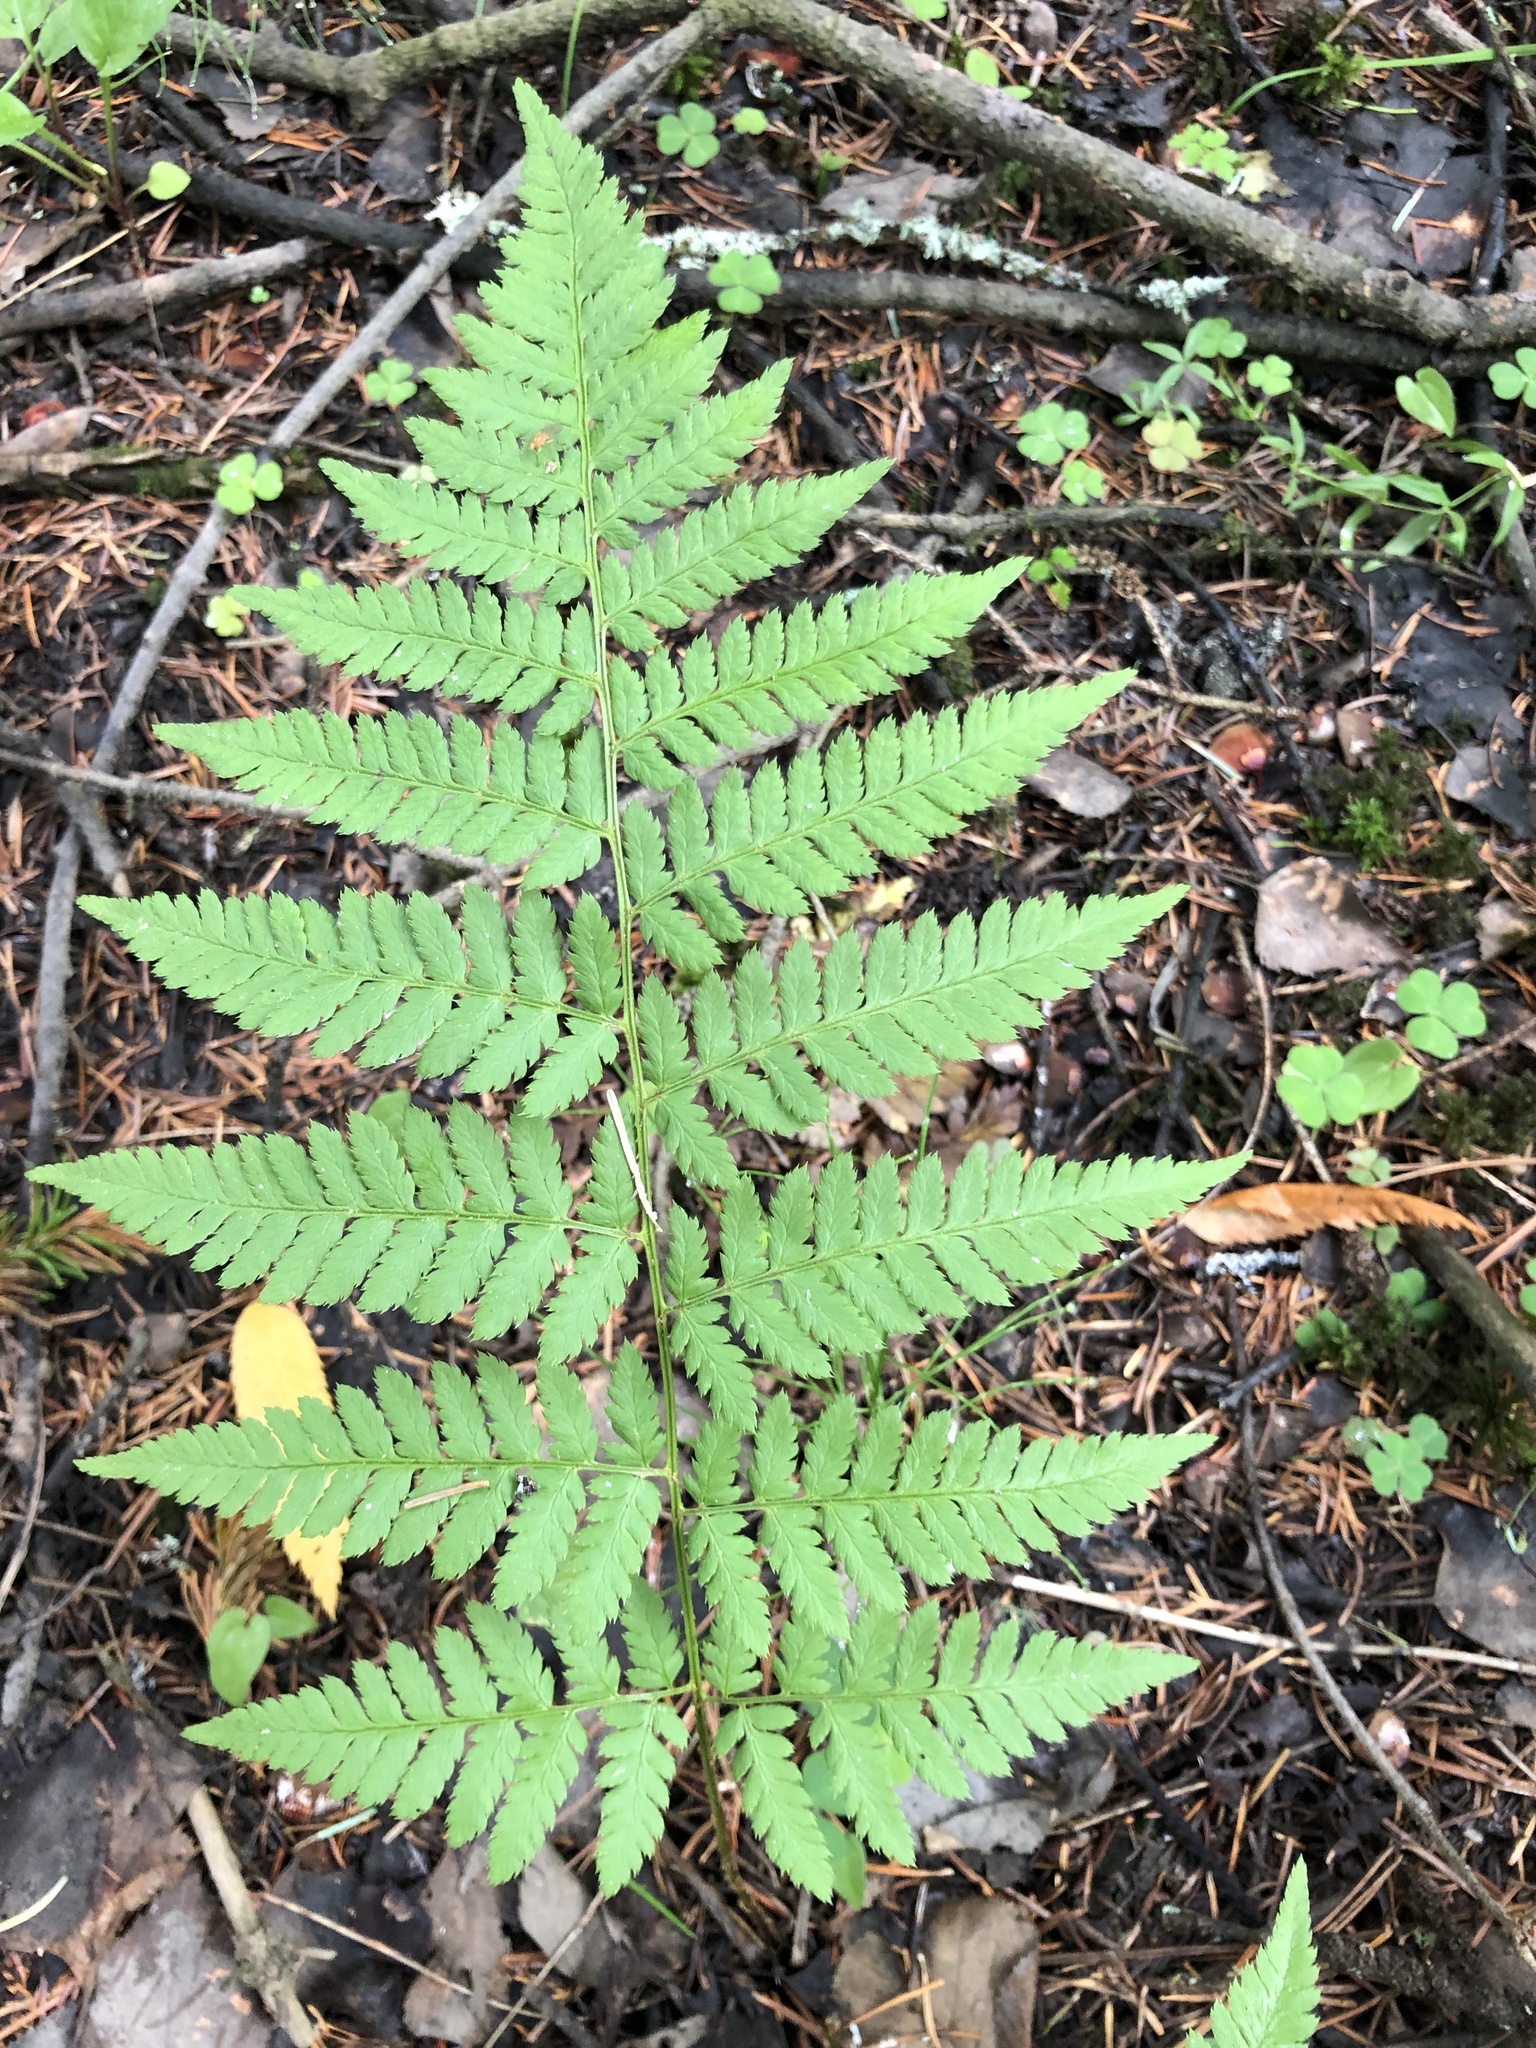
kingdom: Plantae
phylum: Tracheophyta
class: Polypodiopsida
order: Polypodiales
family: Dryopteridaceae
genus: Dryopteris
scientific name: Dryopteris carthusiana
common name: Narrow buckler-fern
